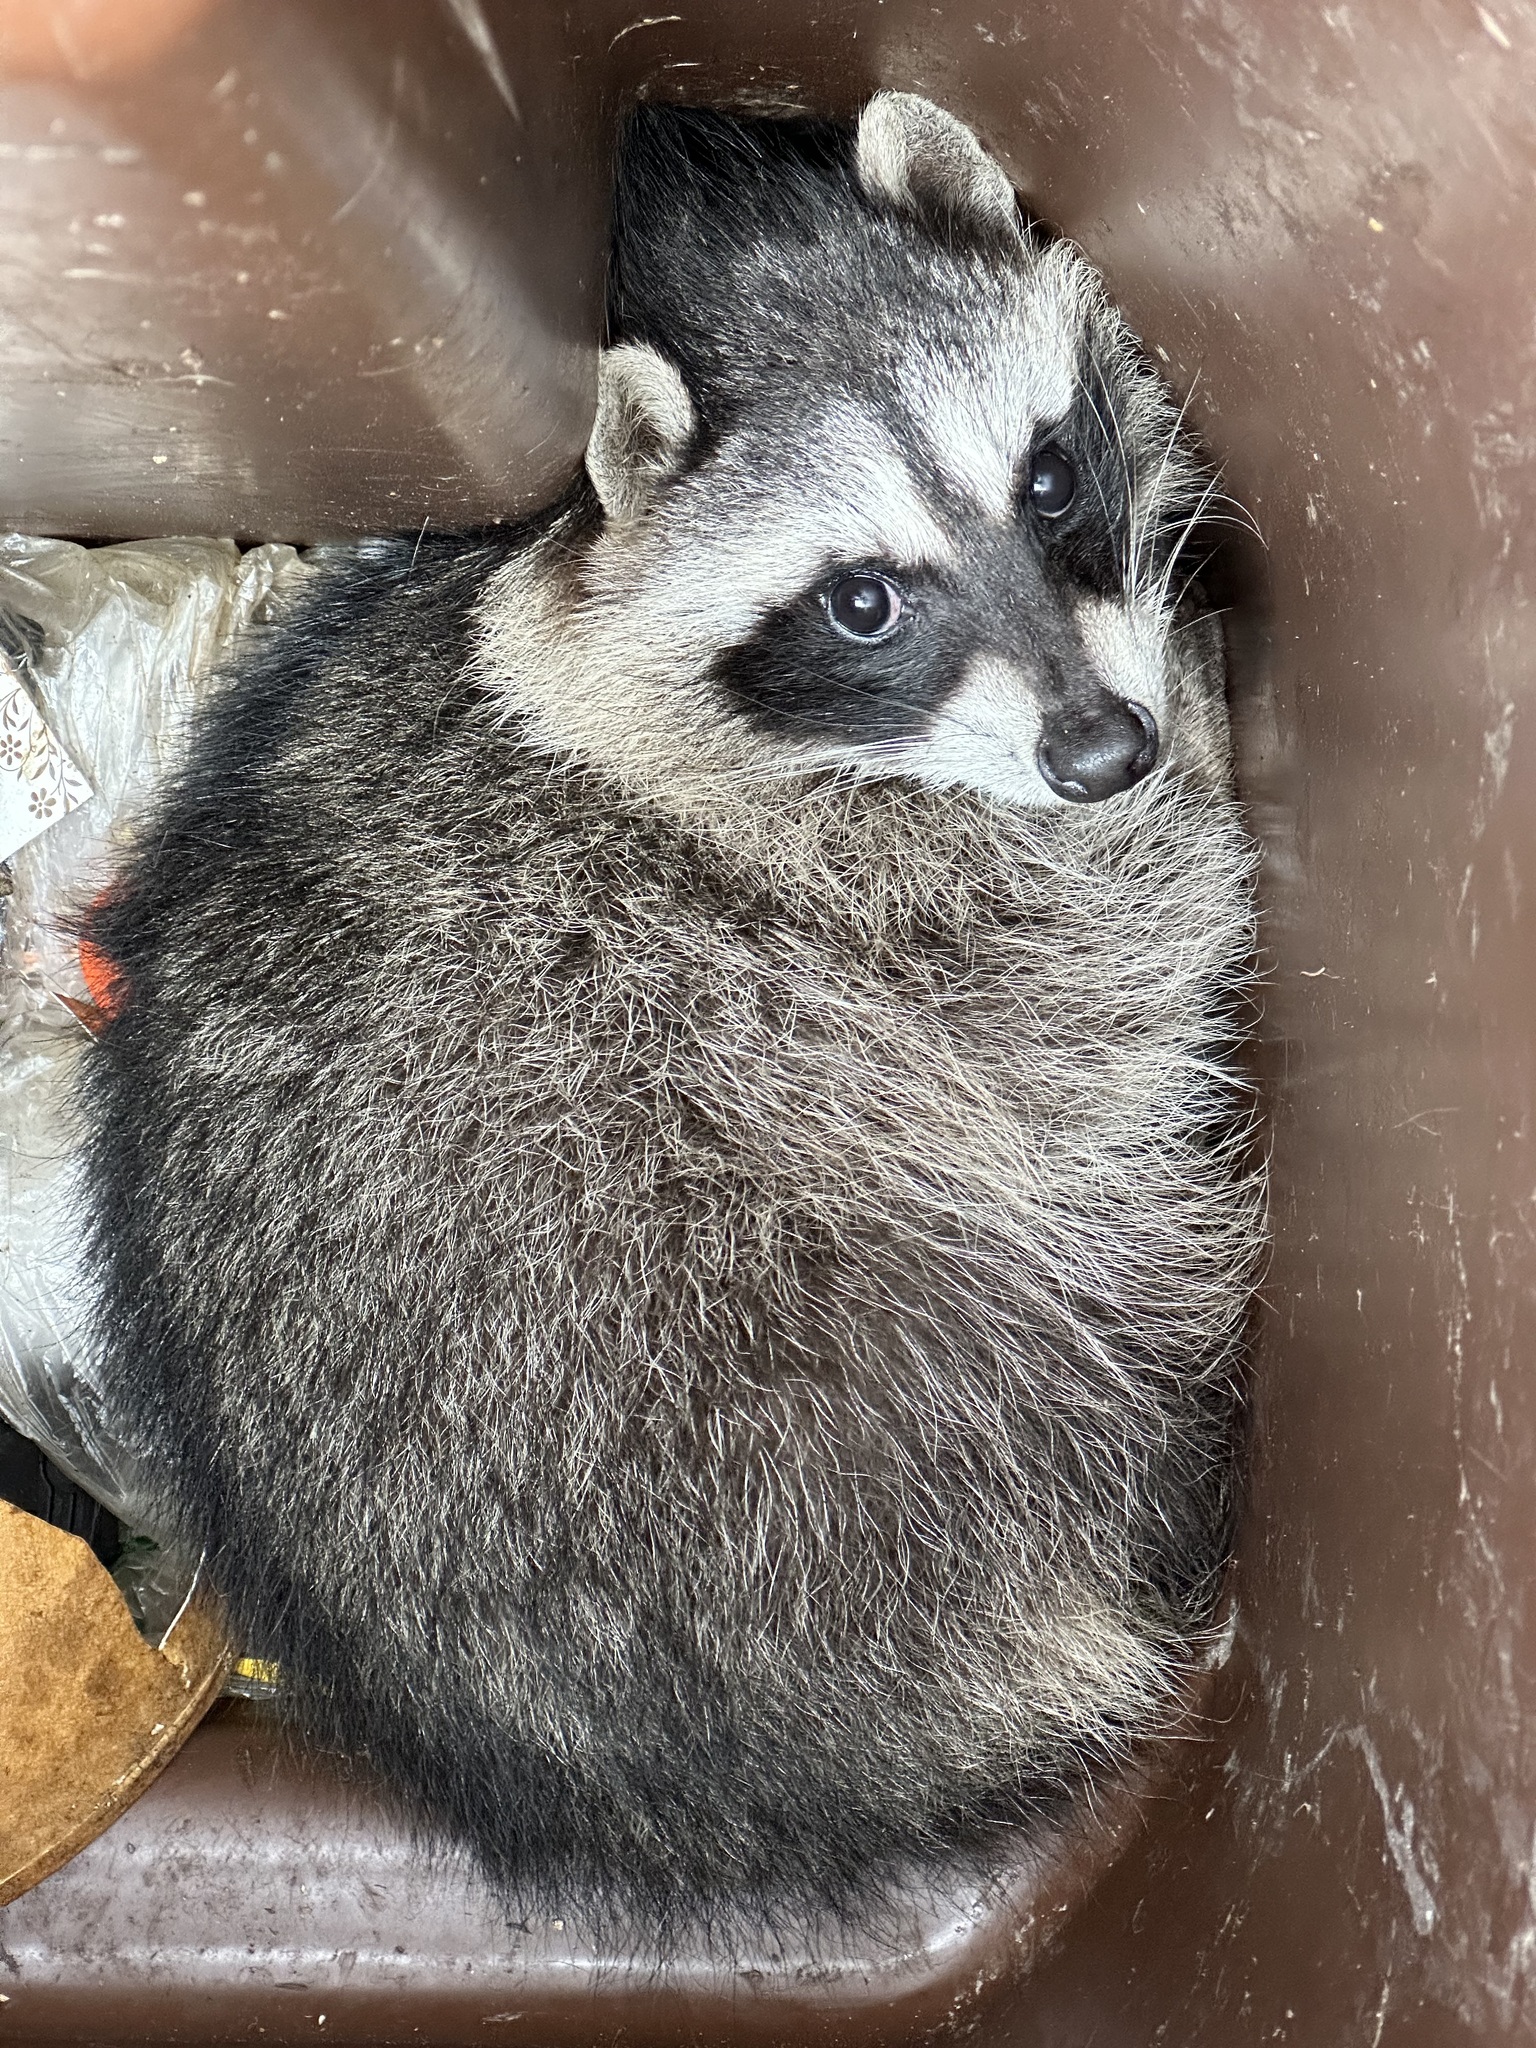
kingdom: Animalia
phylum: Chordata
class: Mammalia
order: Carnivora
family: Procyonidae
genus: Procyon
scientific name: Procyon lotor
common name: Raccoon
